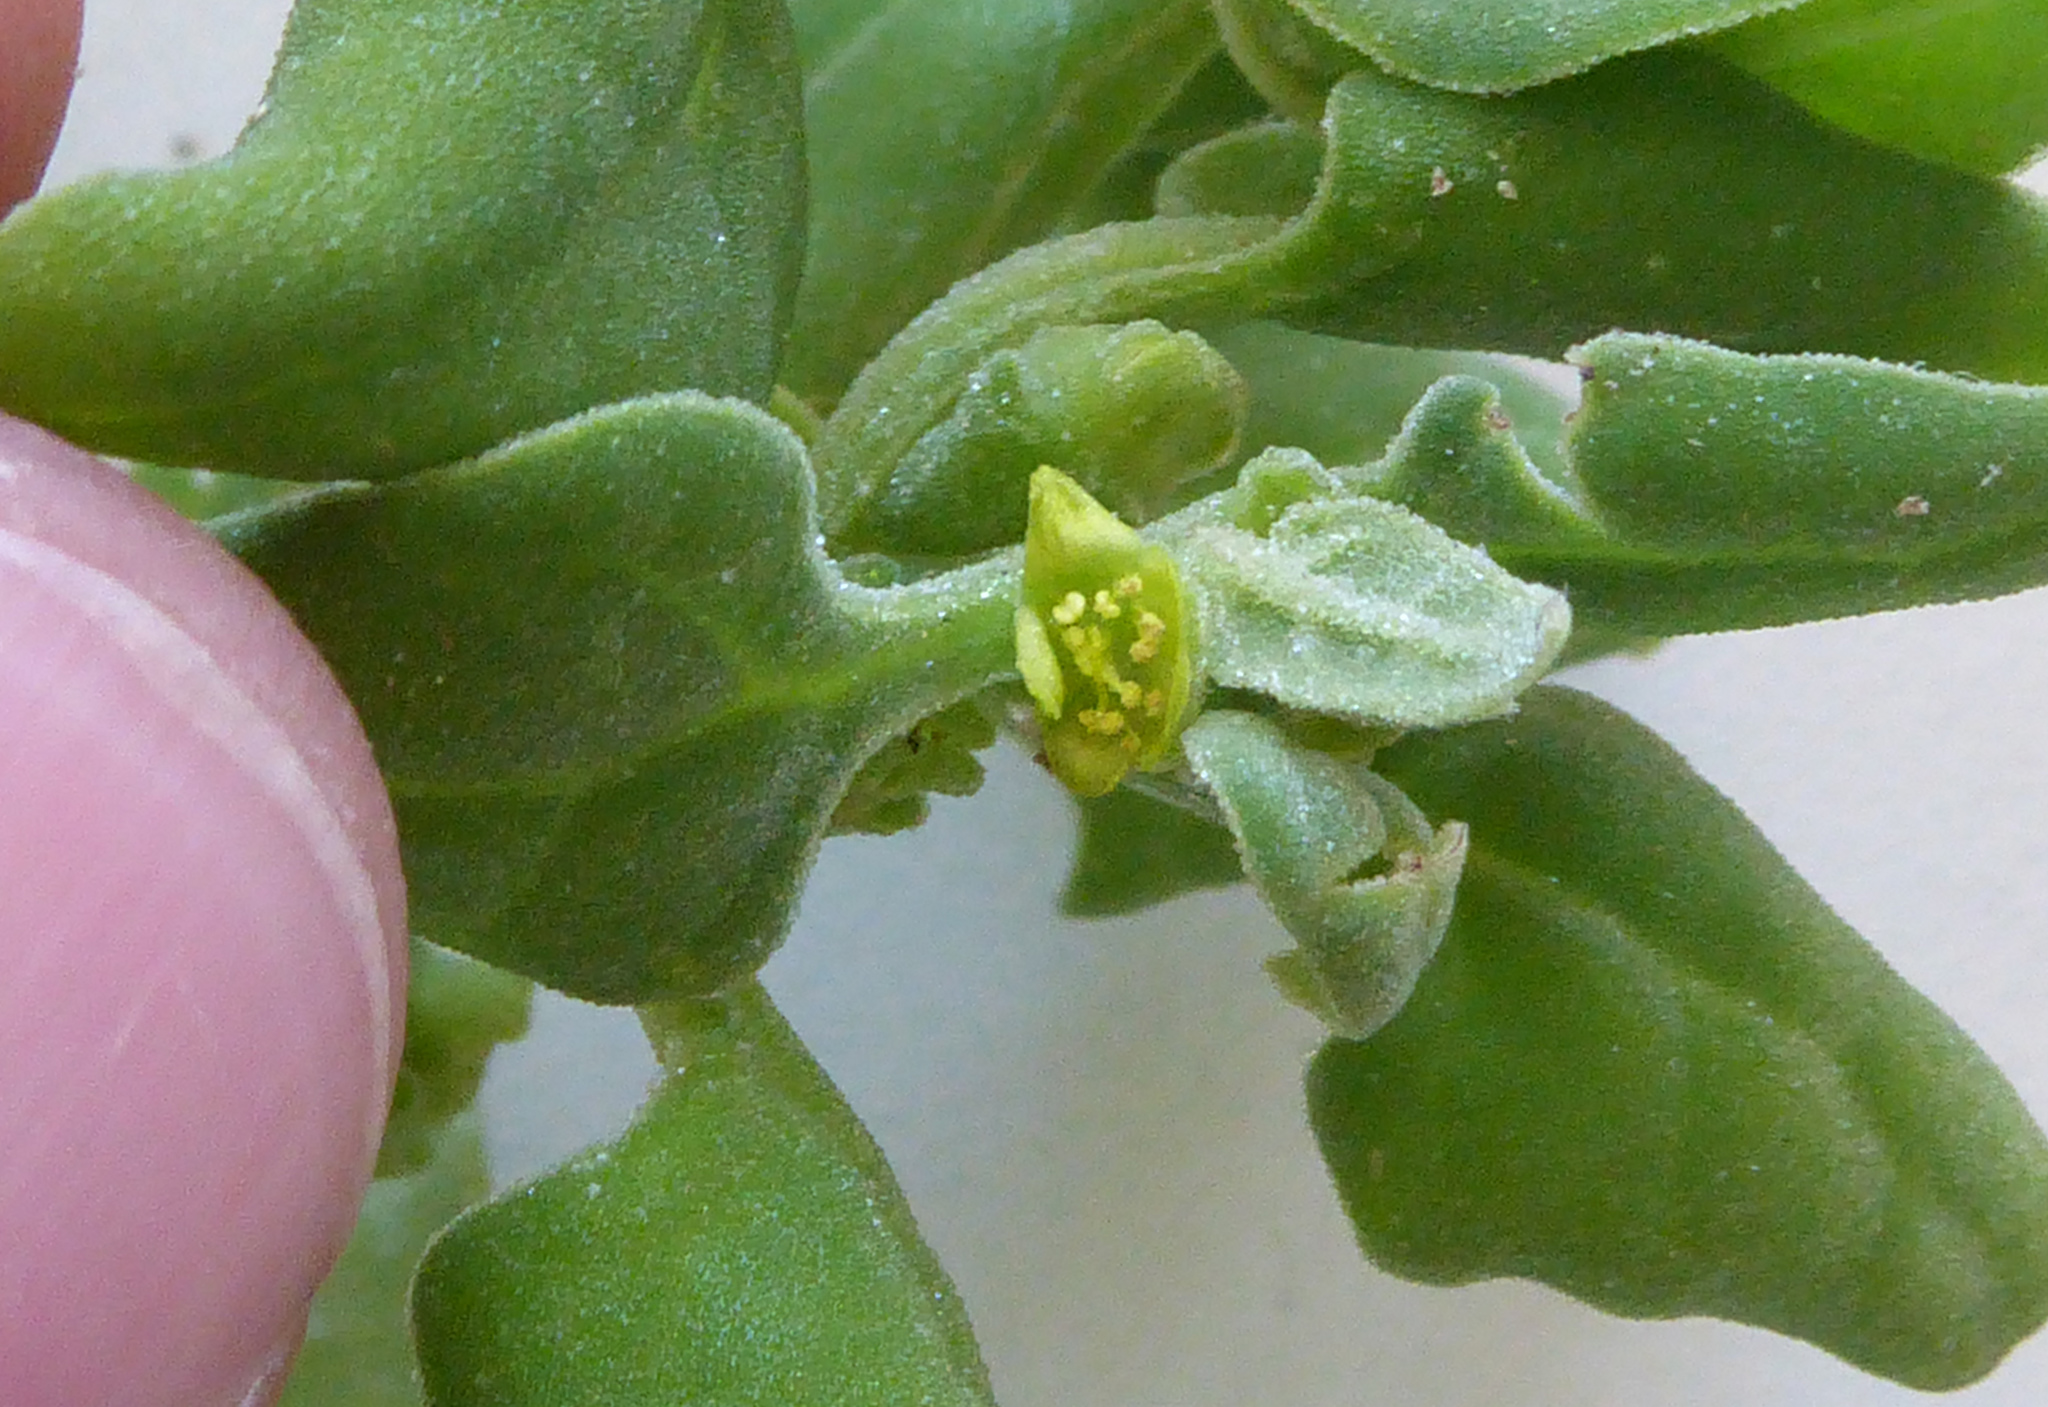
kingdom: Plantae
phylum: Tracheophyta
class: Magnoliopsida
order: Caryophyllales
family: Aizoaceae
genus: Tetragonia
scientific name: Tetragonia tetragonoides
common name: New zealand-spinach
